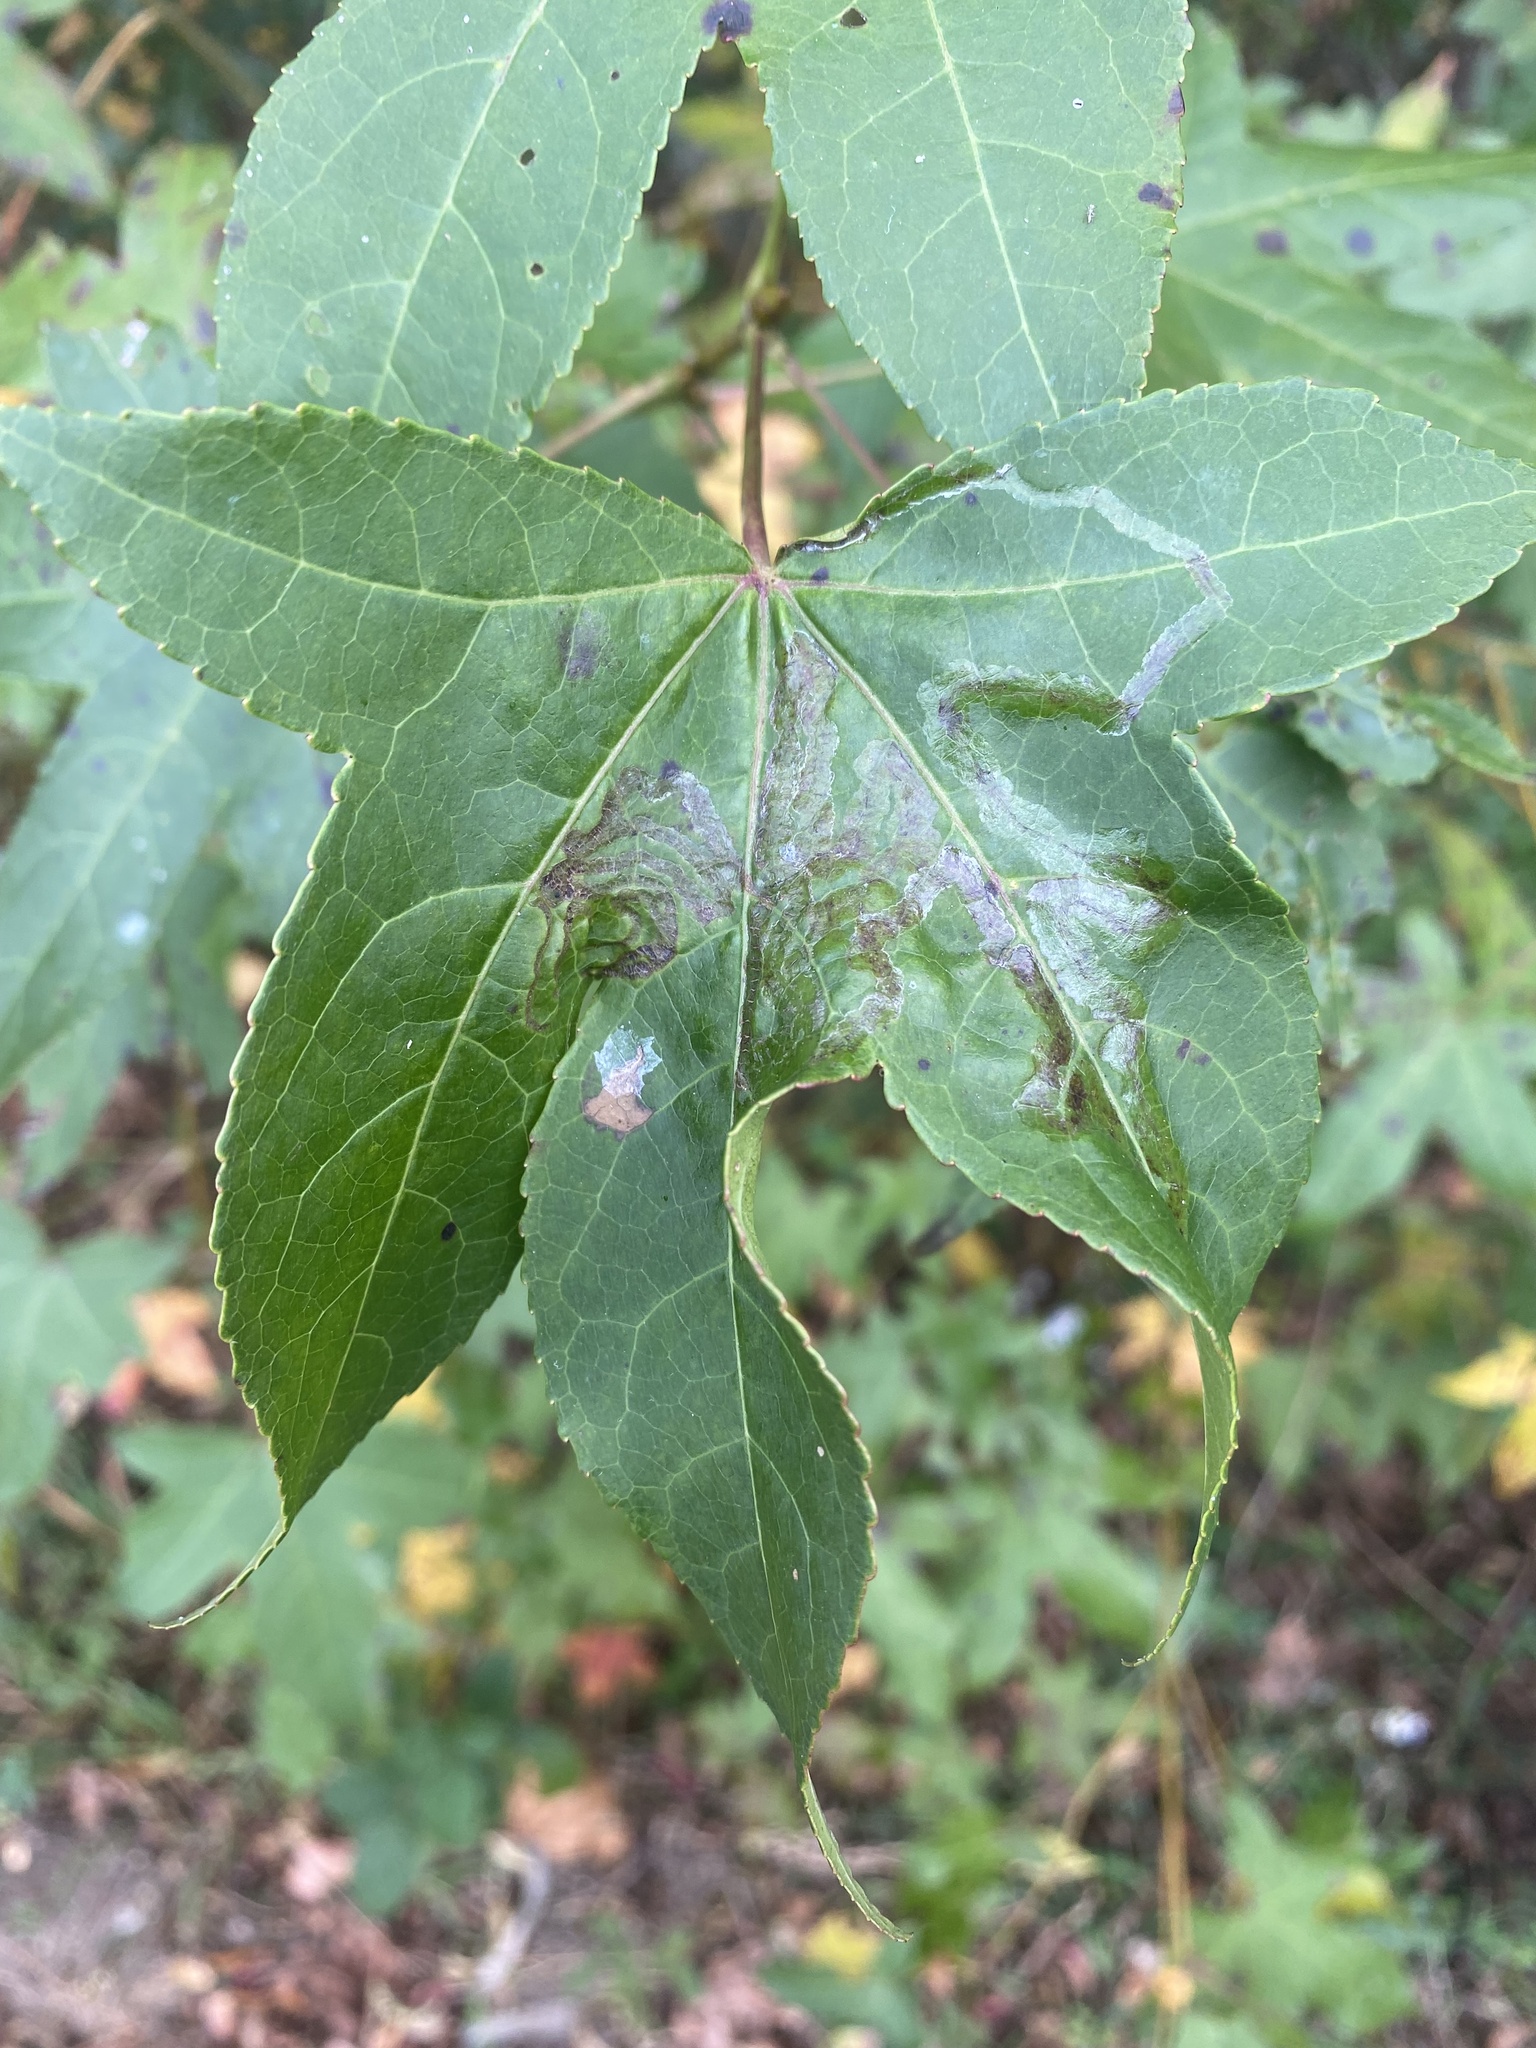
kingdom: Animalia
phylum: Arthropoda
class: Insecta
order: Lepidoptera
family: Gracillariidae
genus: Phyllocnistis
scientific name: Phyllocnistis liquidambarisella
